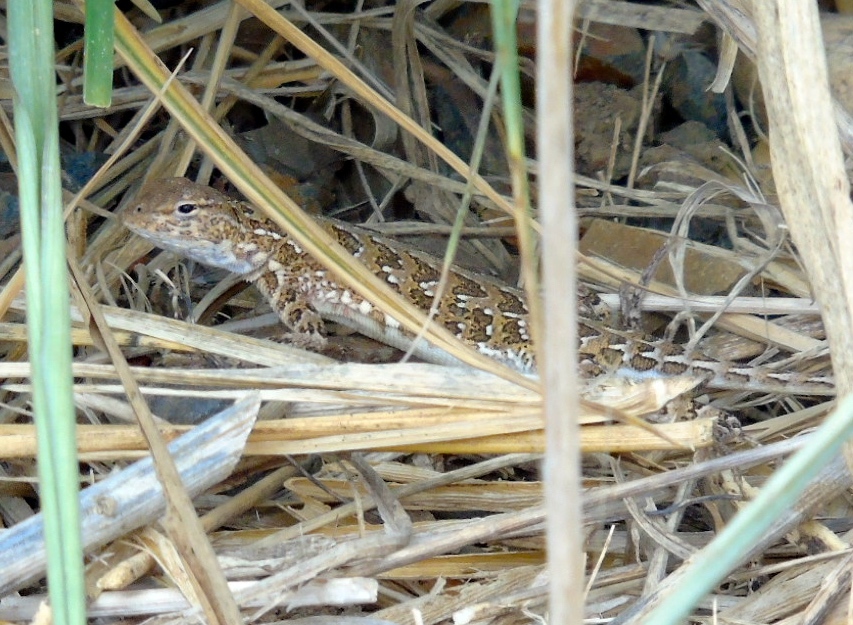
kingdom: Animalia
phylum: Chordata
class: Squamata
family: Phrynosomatidae
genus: Holbrookia
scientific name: Holbrookia elegans
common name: Elegant earless lizard
